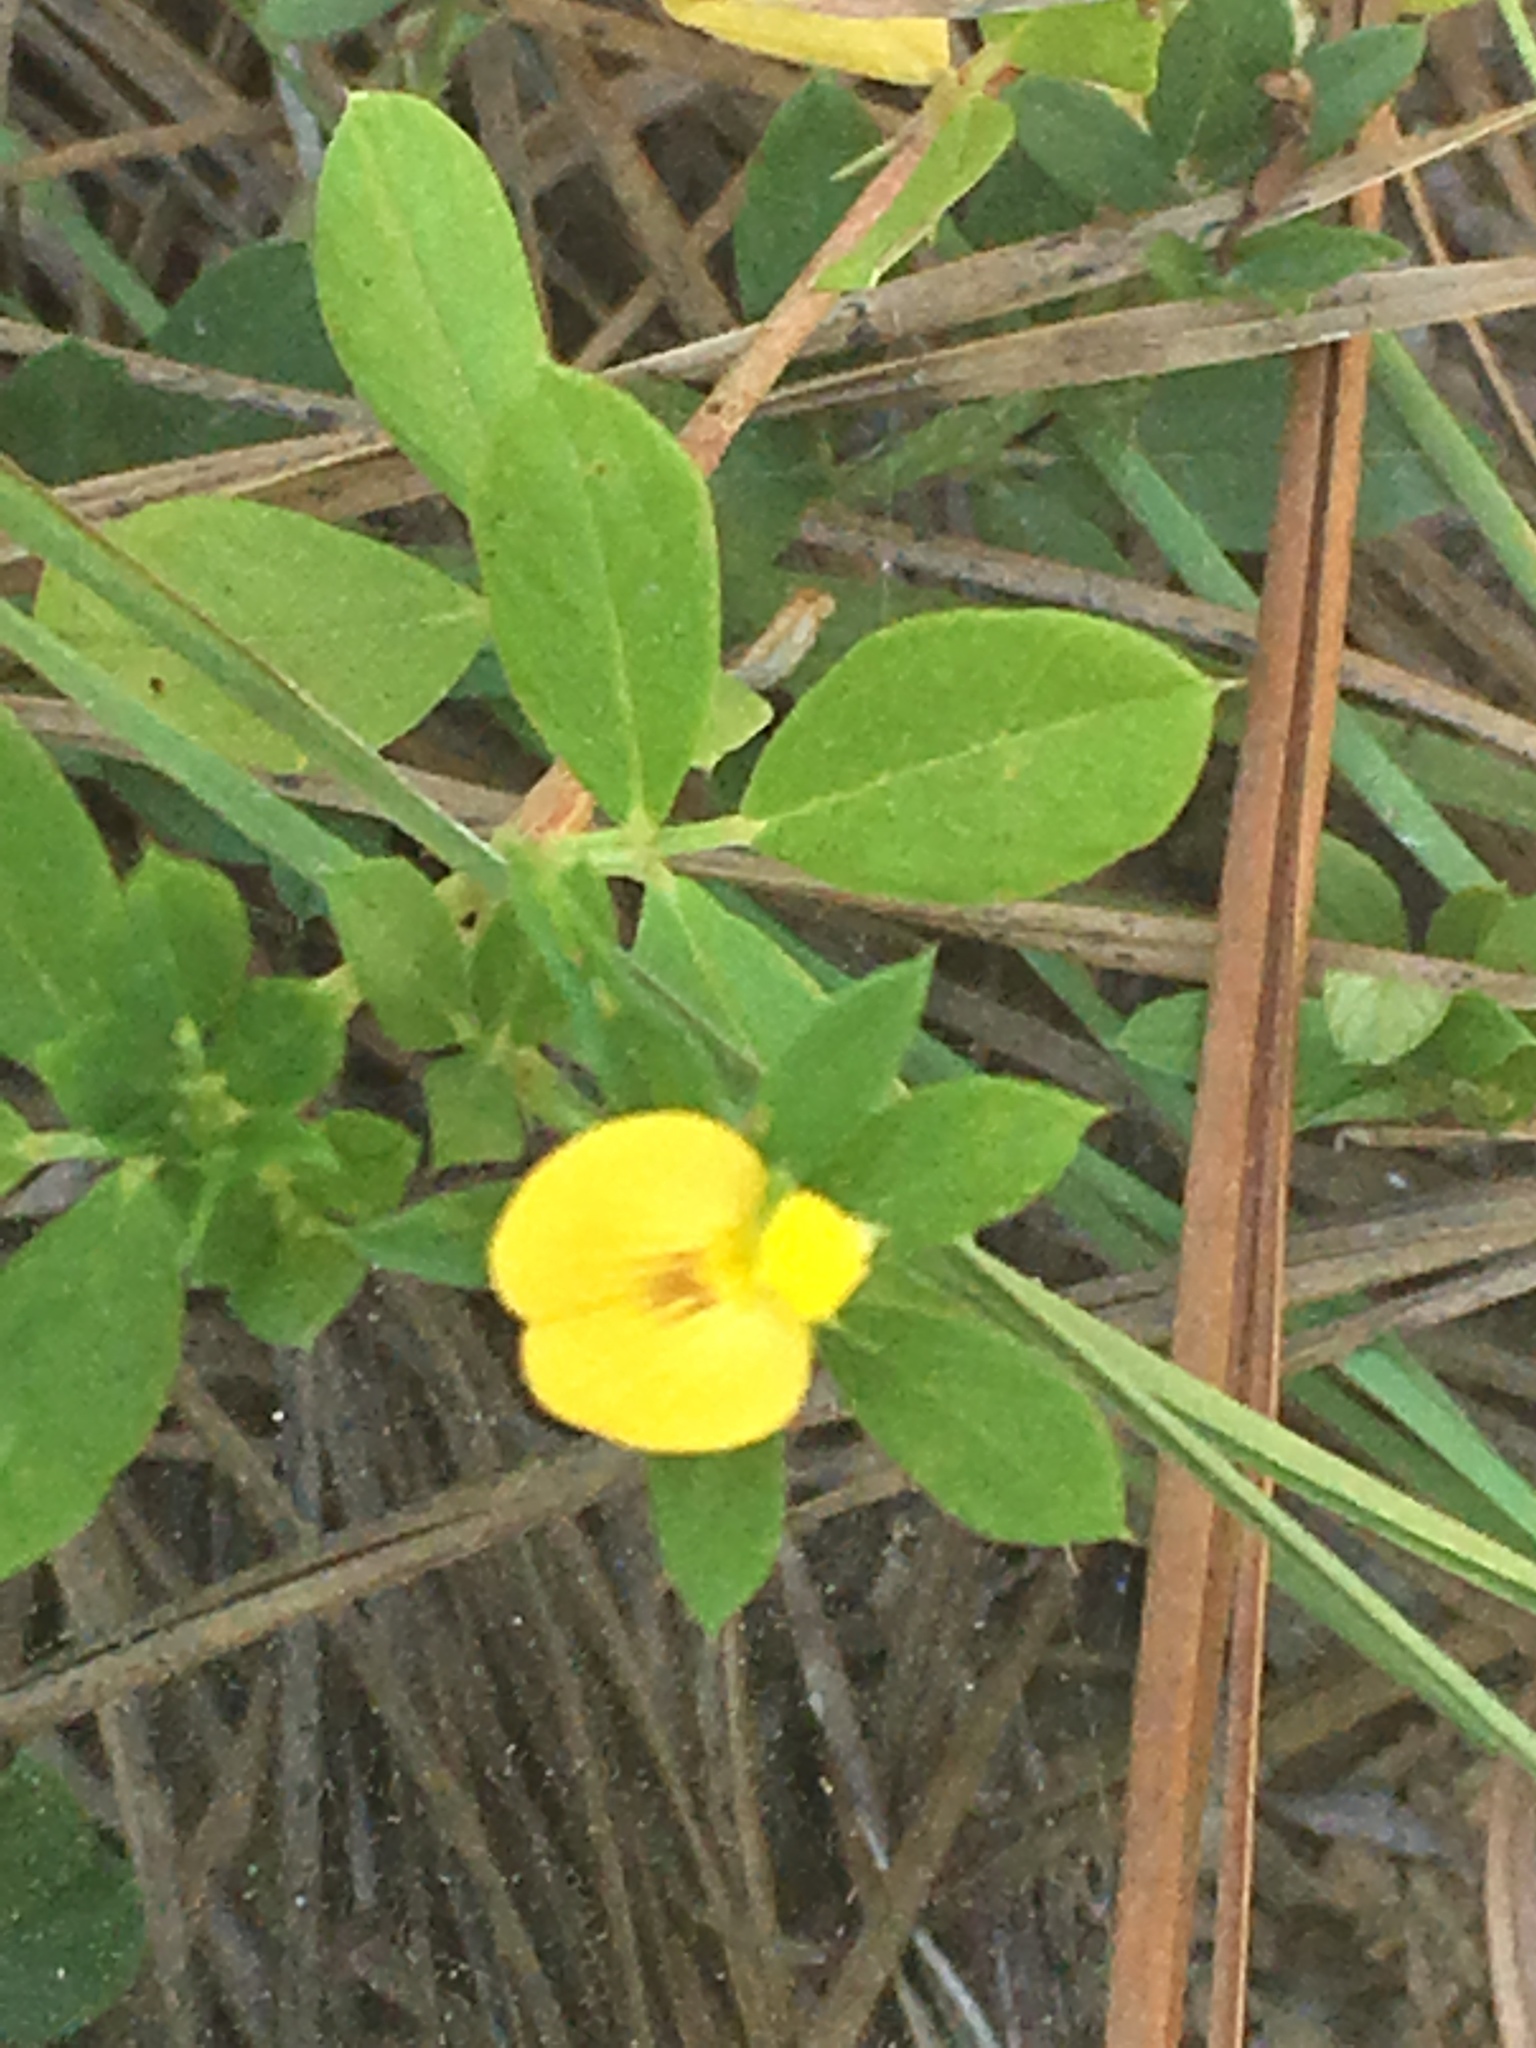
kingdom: Plantae
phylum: Tracheophyta
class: Magnoliopsida
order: Fabales
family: Fabaceae
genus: Stylosanthes
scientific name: Stylosanthes biflora
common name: Two-flower pencil-flower
